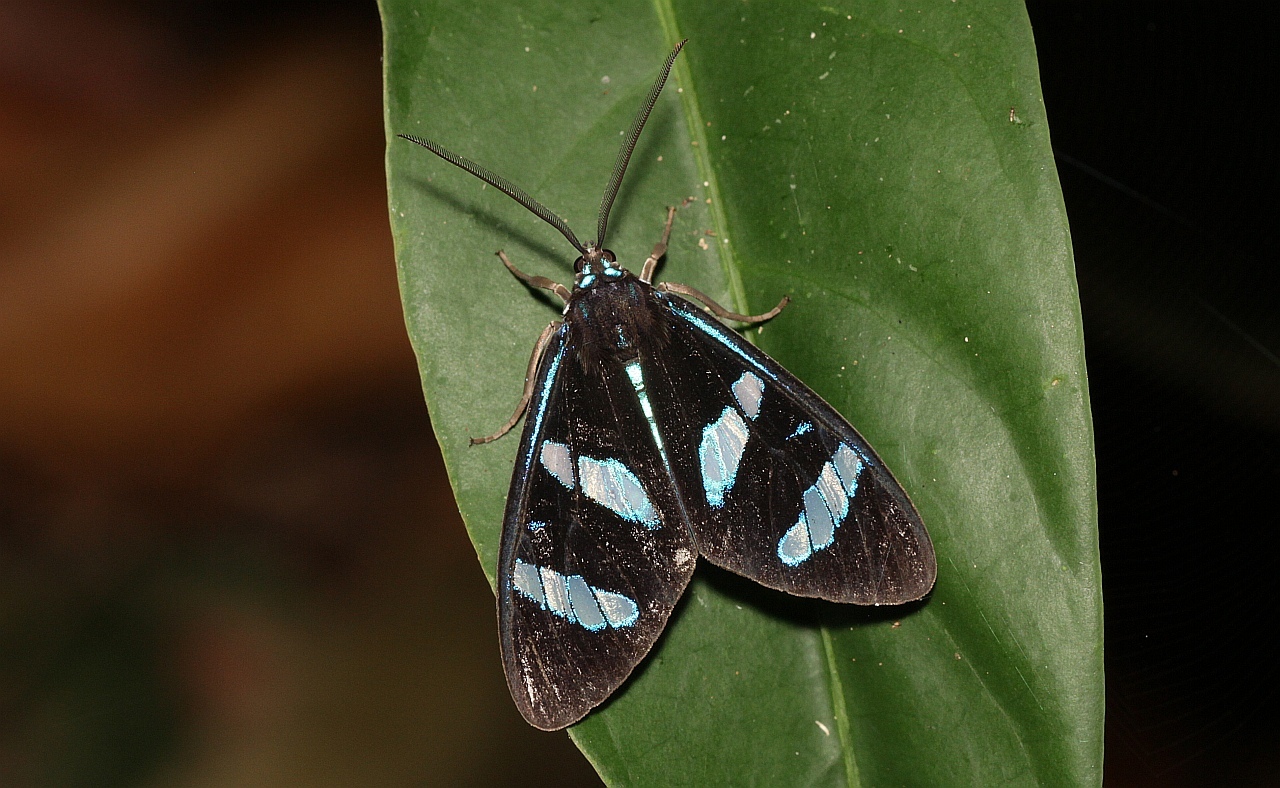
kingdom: Animalia
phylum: Arthropoda
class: Insecta
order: Lepidoptera
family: Erebidae
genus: Agyrtidia
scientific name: Agyrtidia uranophila
